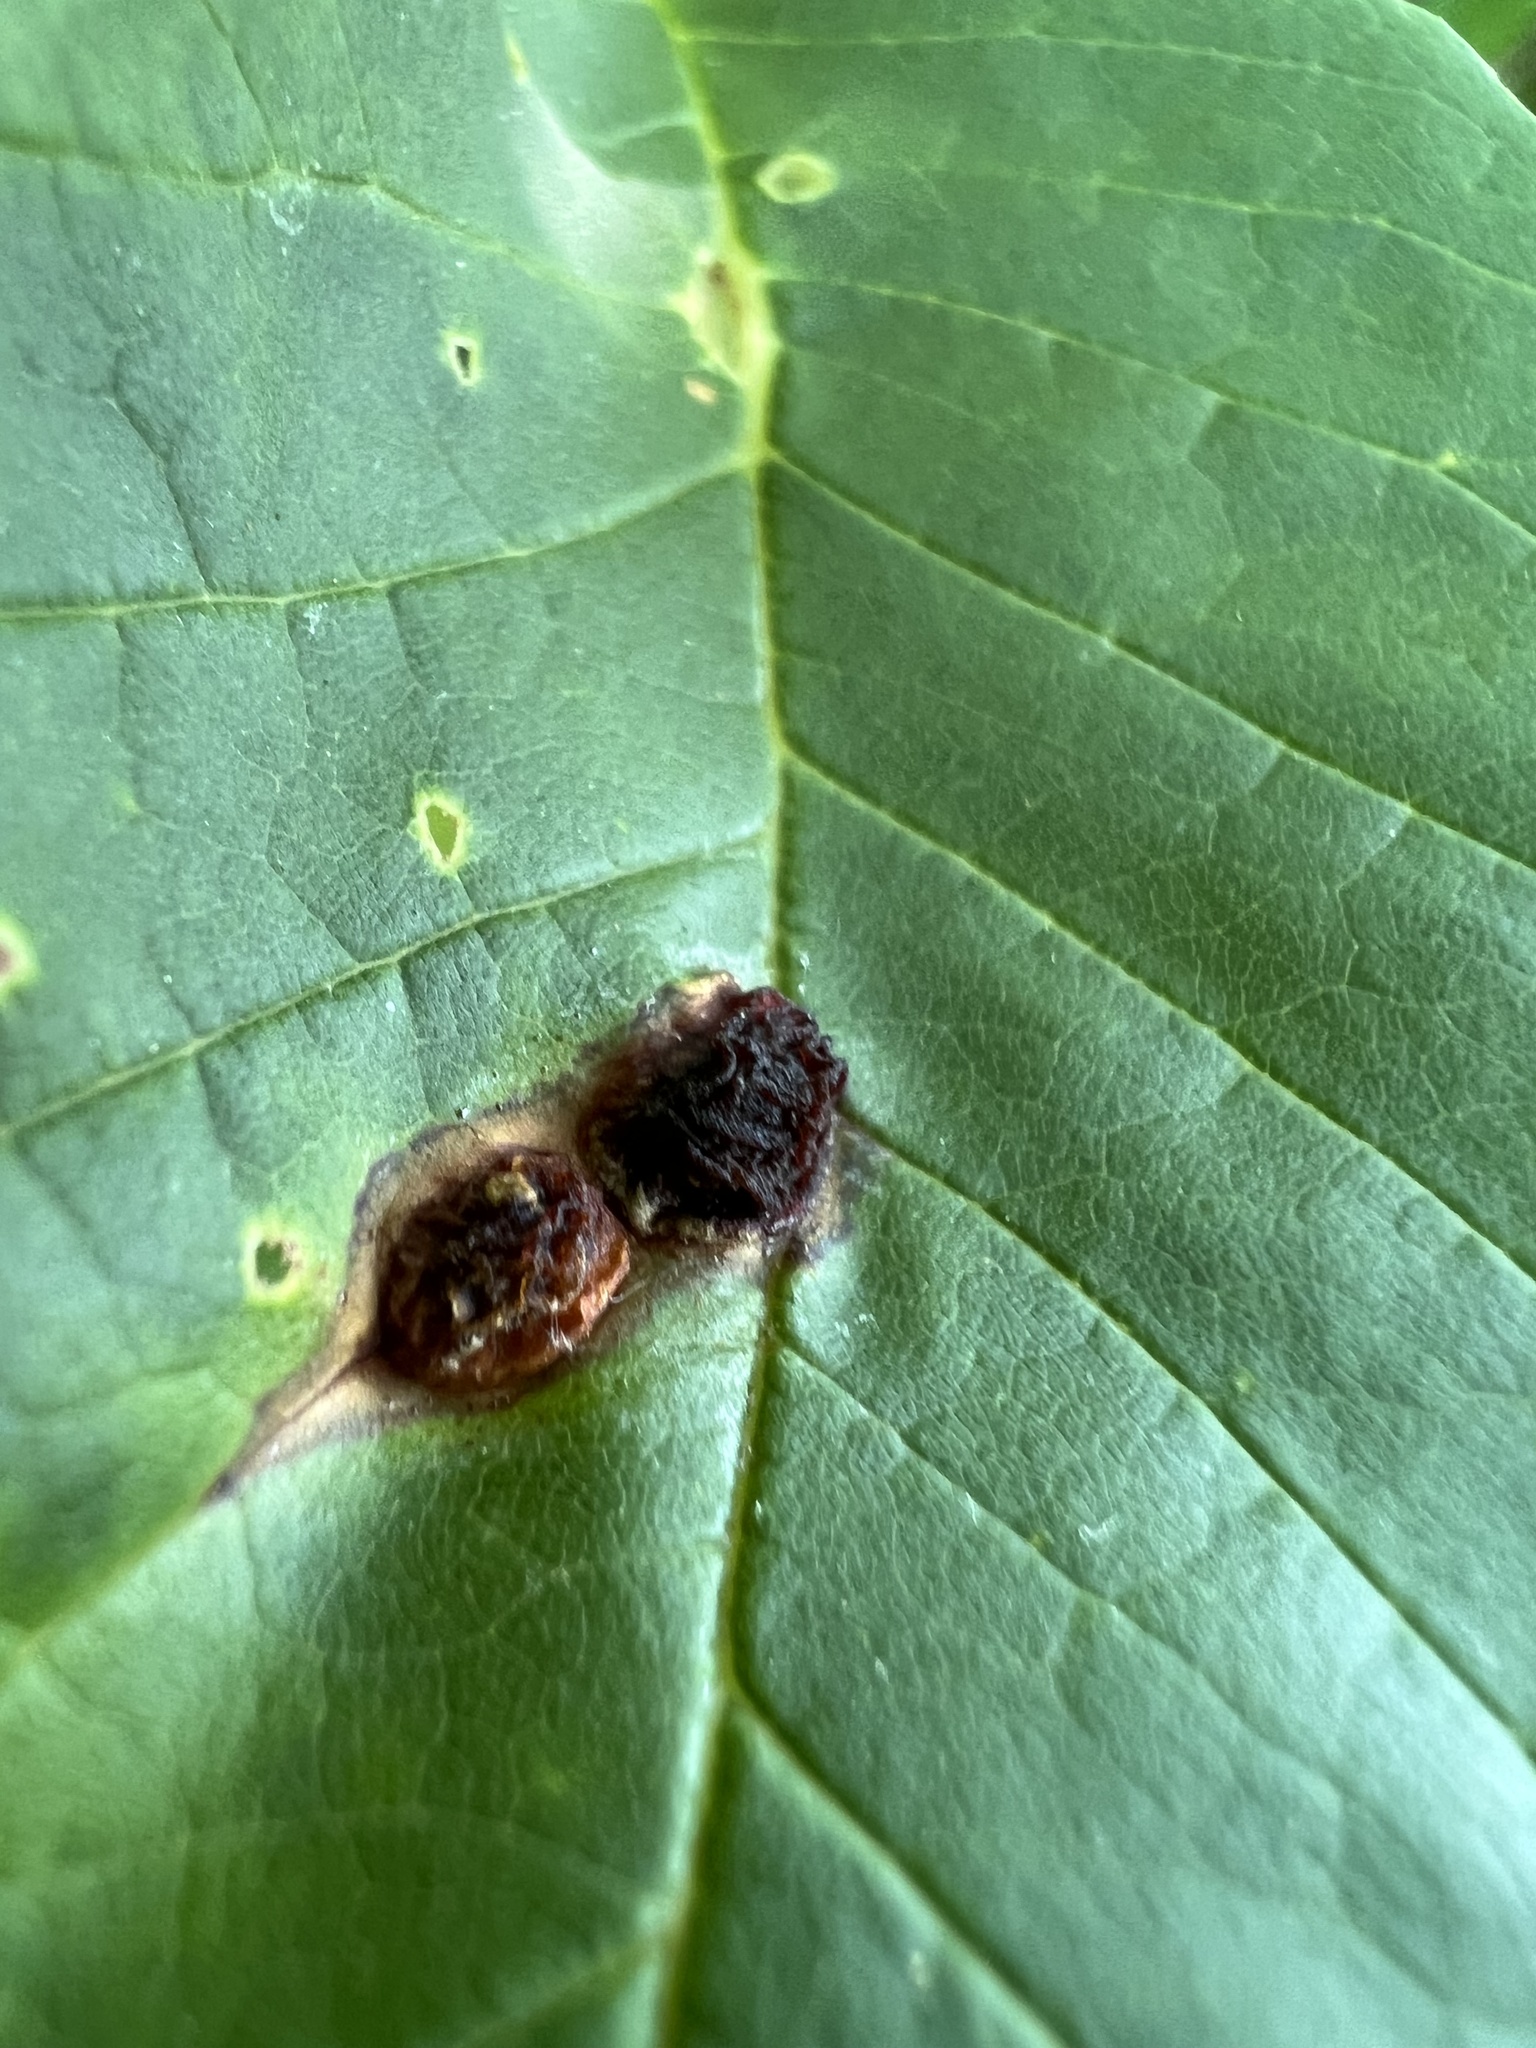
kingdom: Animalia
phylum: Arthropoda
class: Insecta
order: Diptera
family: Cecidomyiidae
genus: Dasineura
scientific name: Dasineura pellex
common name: Ash bullet gall midge
